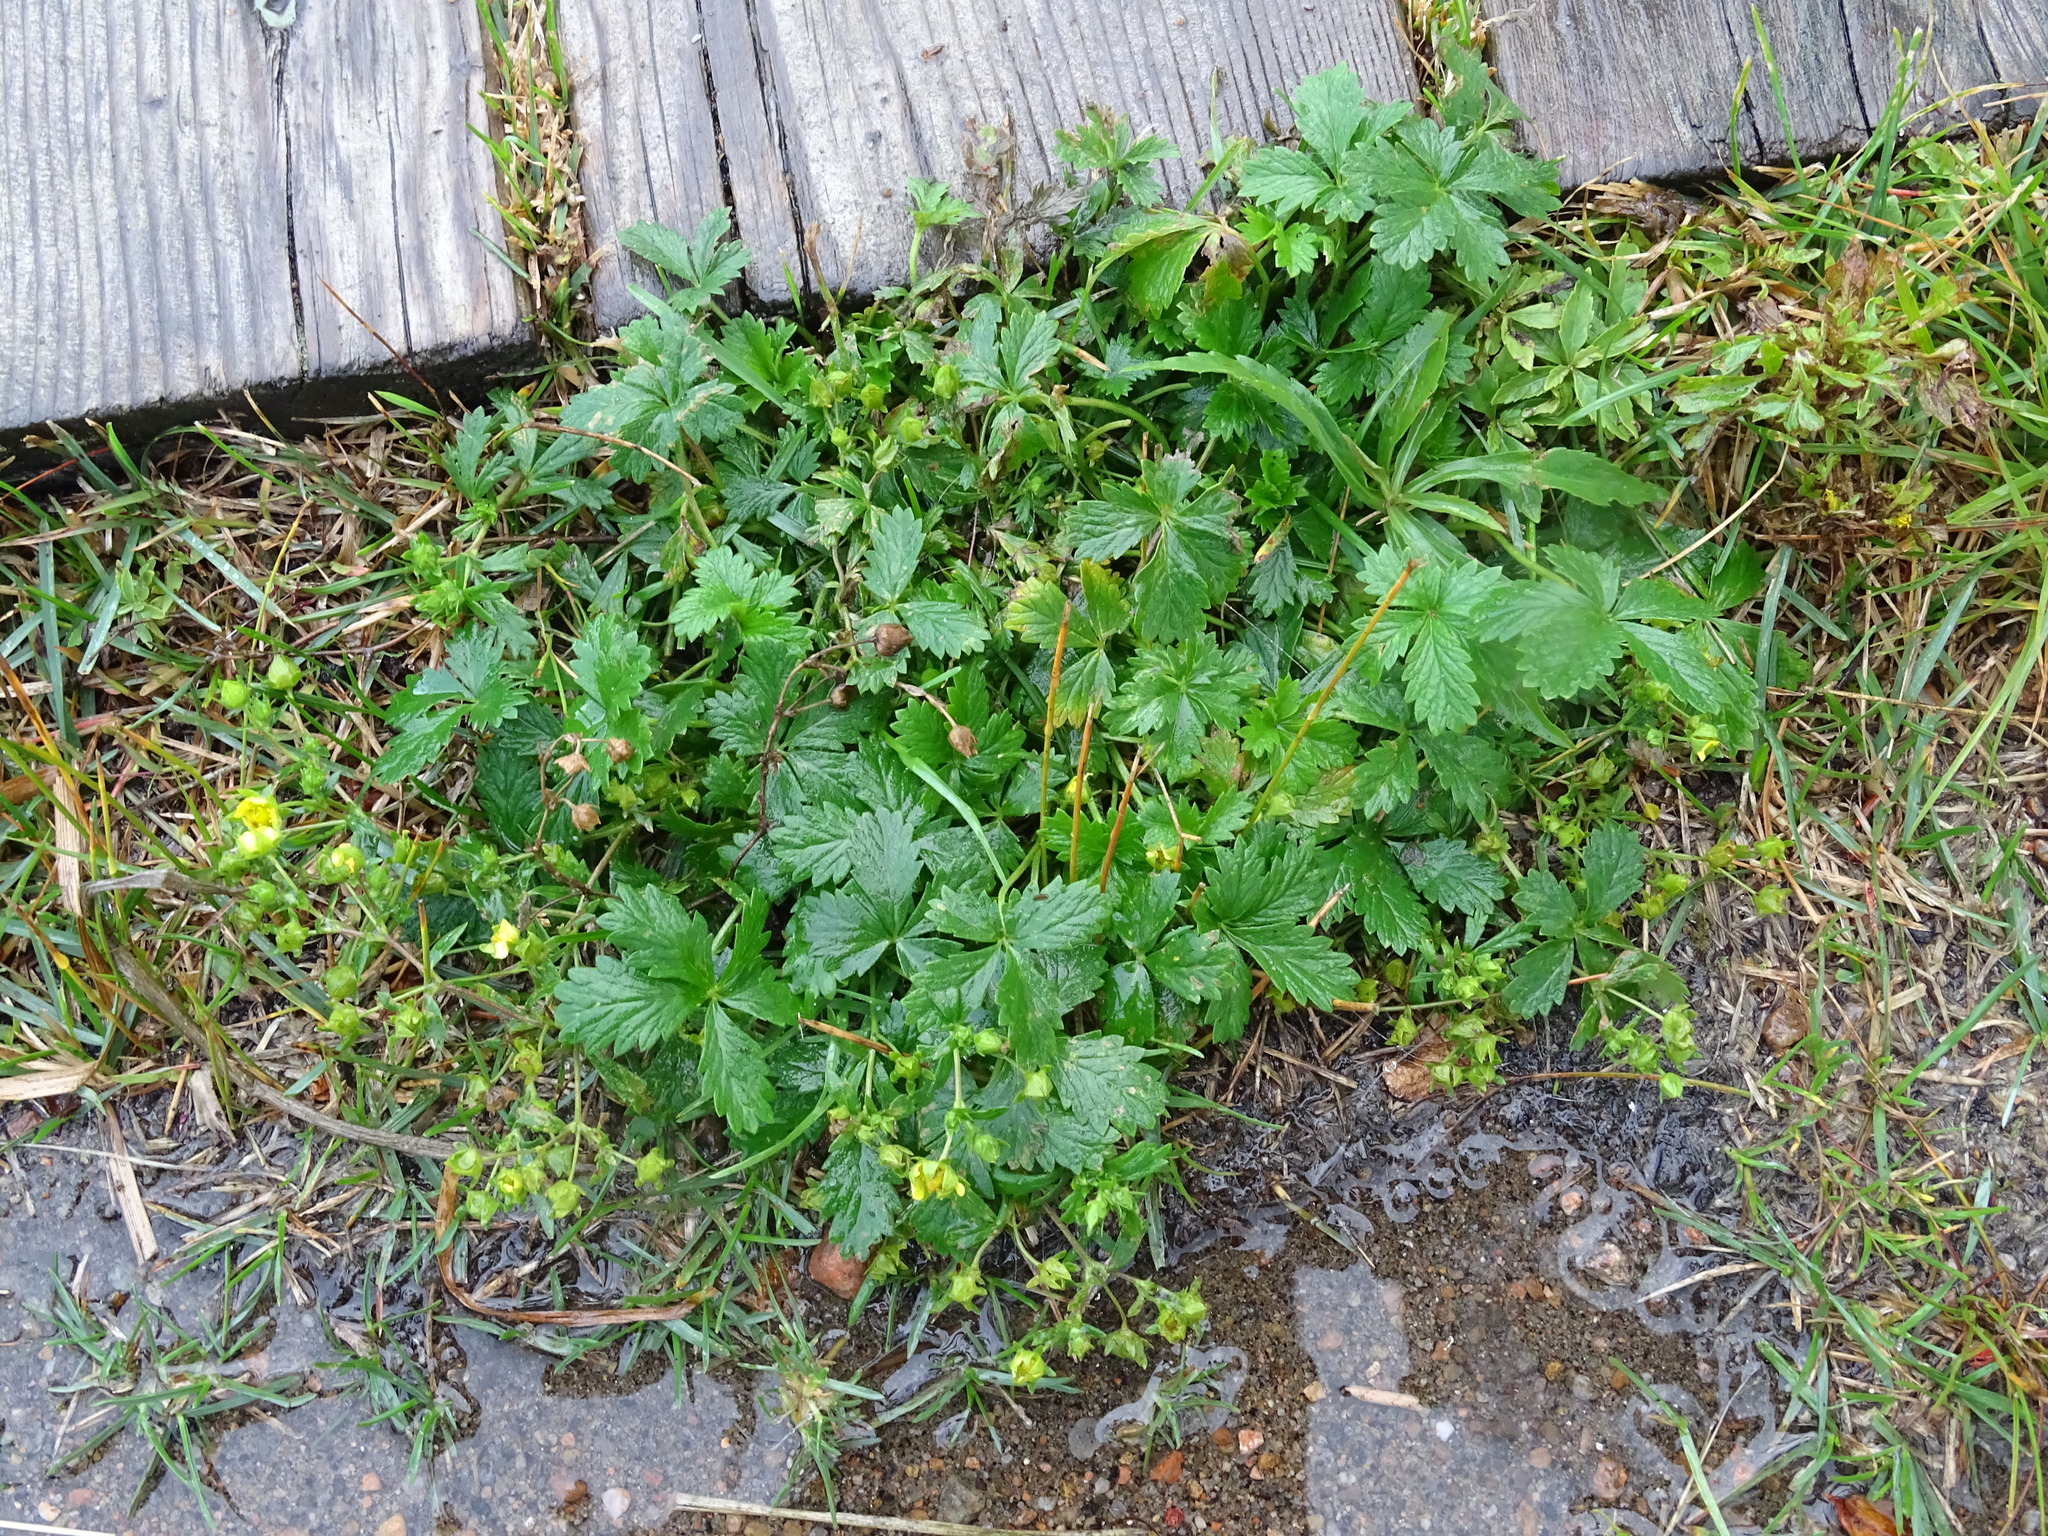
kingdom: Plantae
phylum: Tracheophyta
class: Magnoliopsida
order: Rosales
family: Rosaceae
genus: Potentilla
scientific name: Potentilla inclinata
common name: Grey cinquefoil
